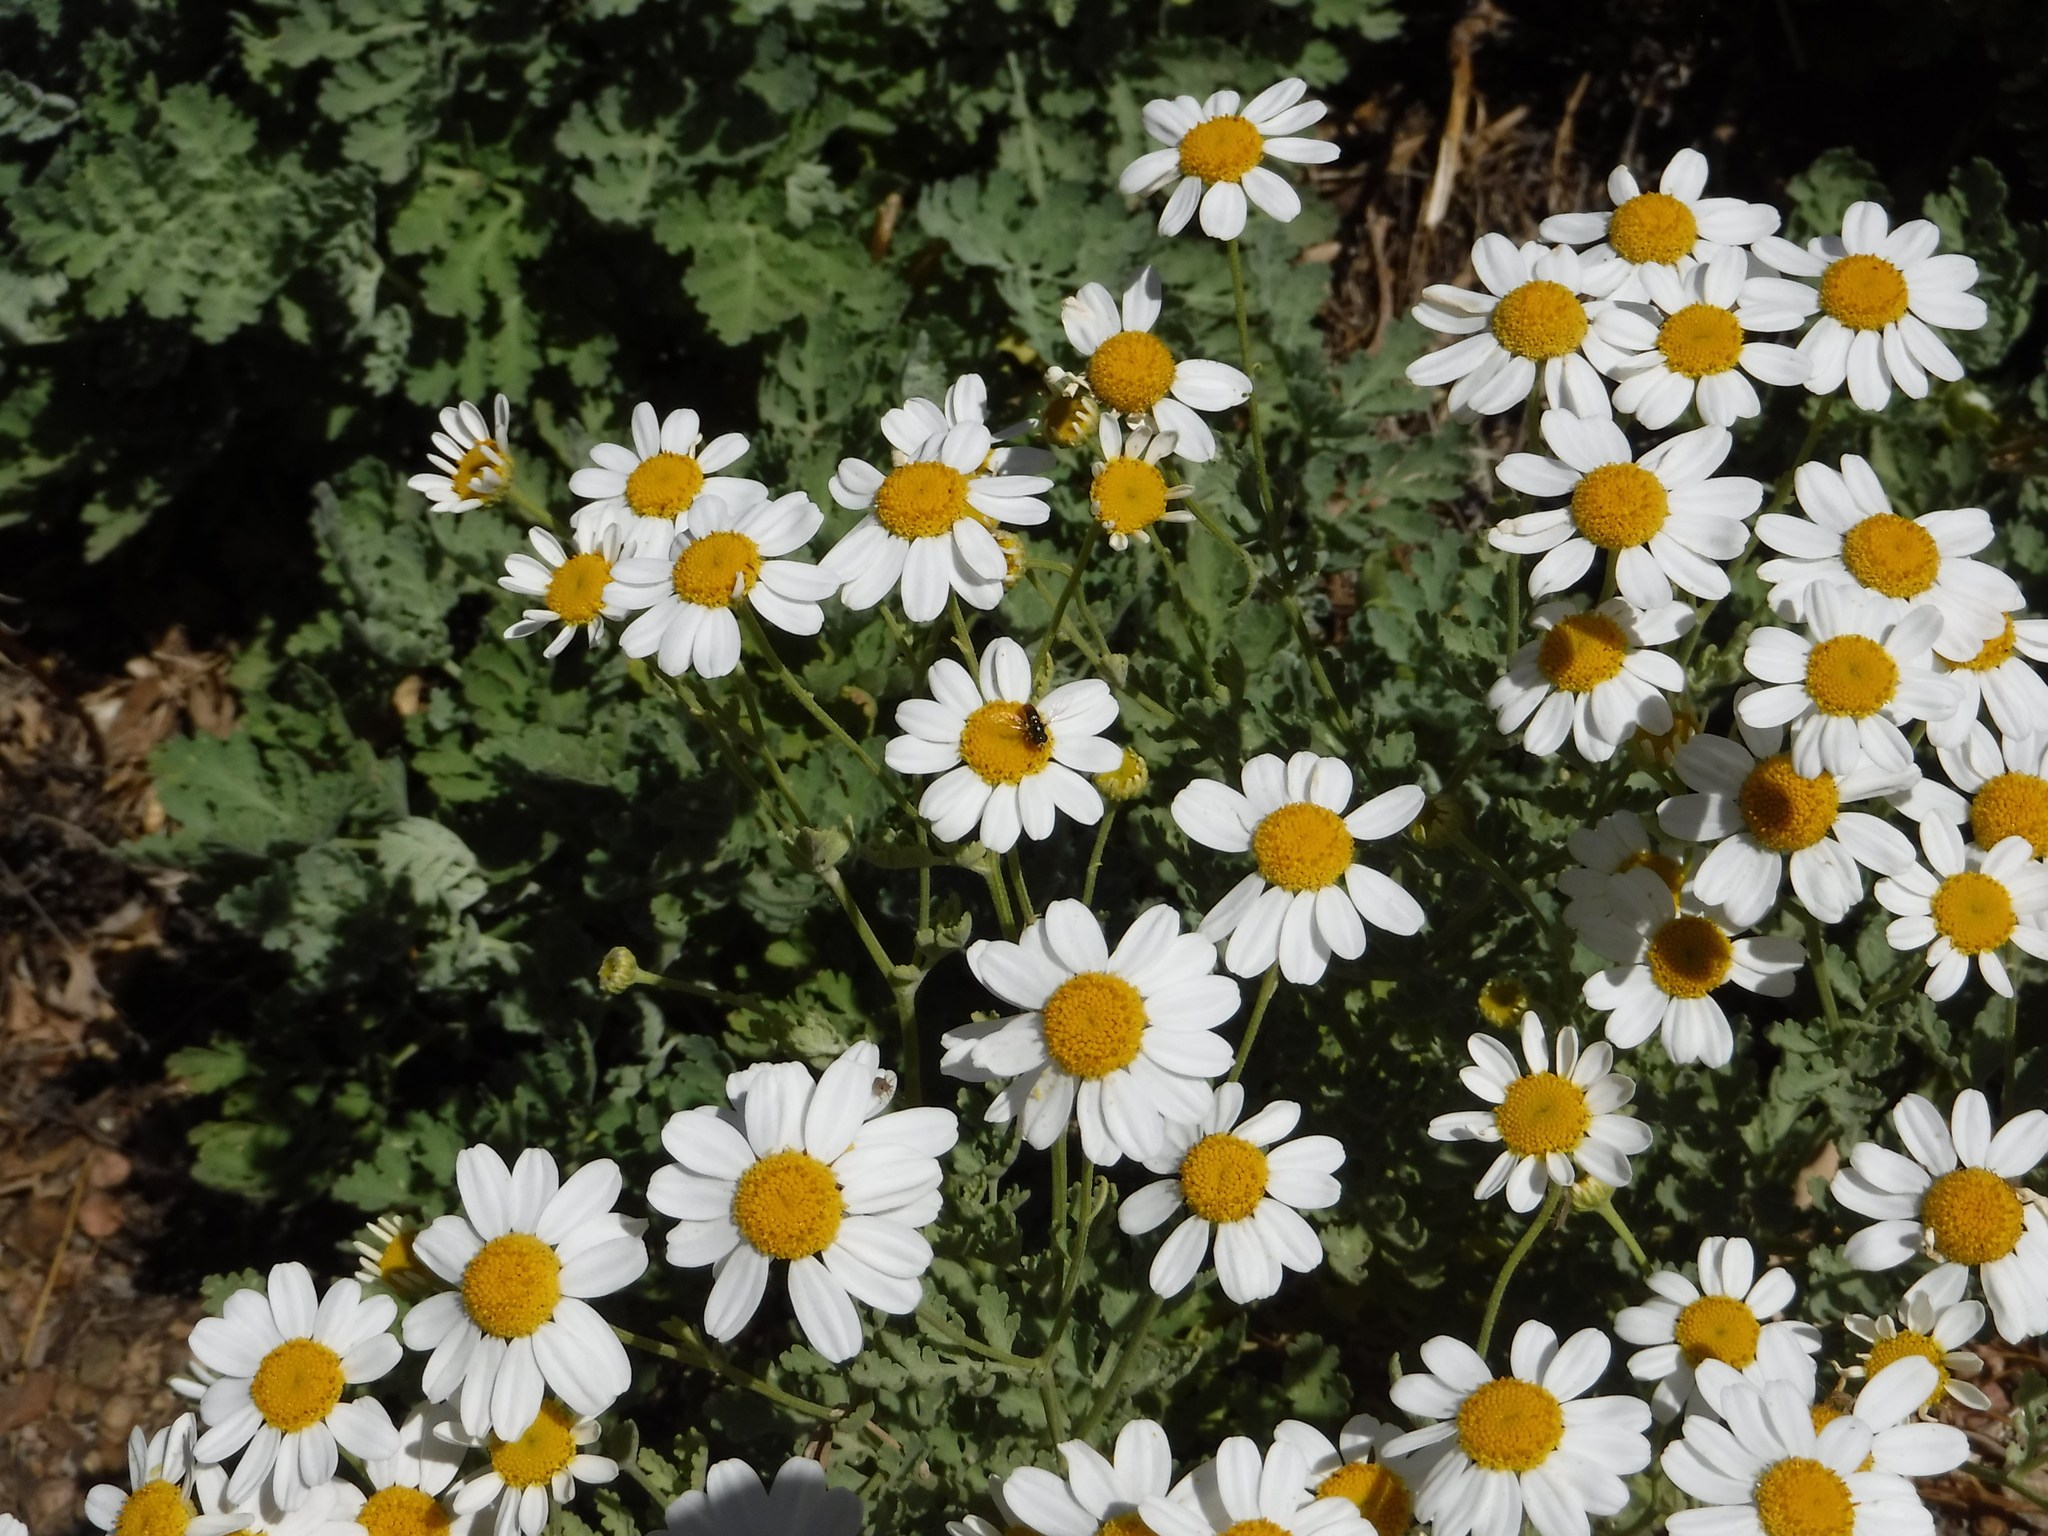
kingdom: Animalia
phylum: Arthropoda
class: Insecta
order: Diptera
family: Syrphidae
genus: Paragus
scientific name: Paragus haemorrhous
